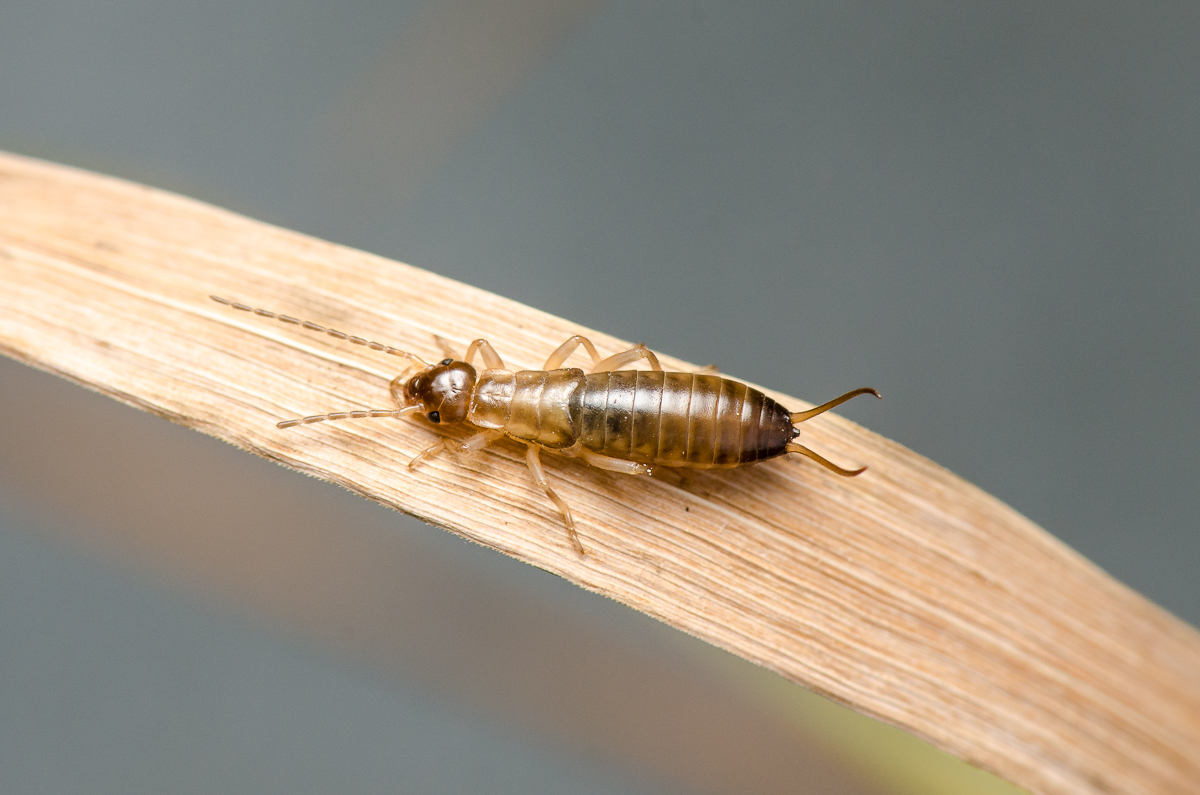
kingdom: Animalia
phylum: Arthropoda
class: Insecta
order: Dermaptera
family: Forficulidae
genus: Forficula
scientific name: Forficula
